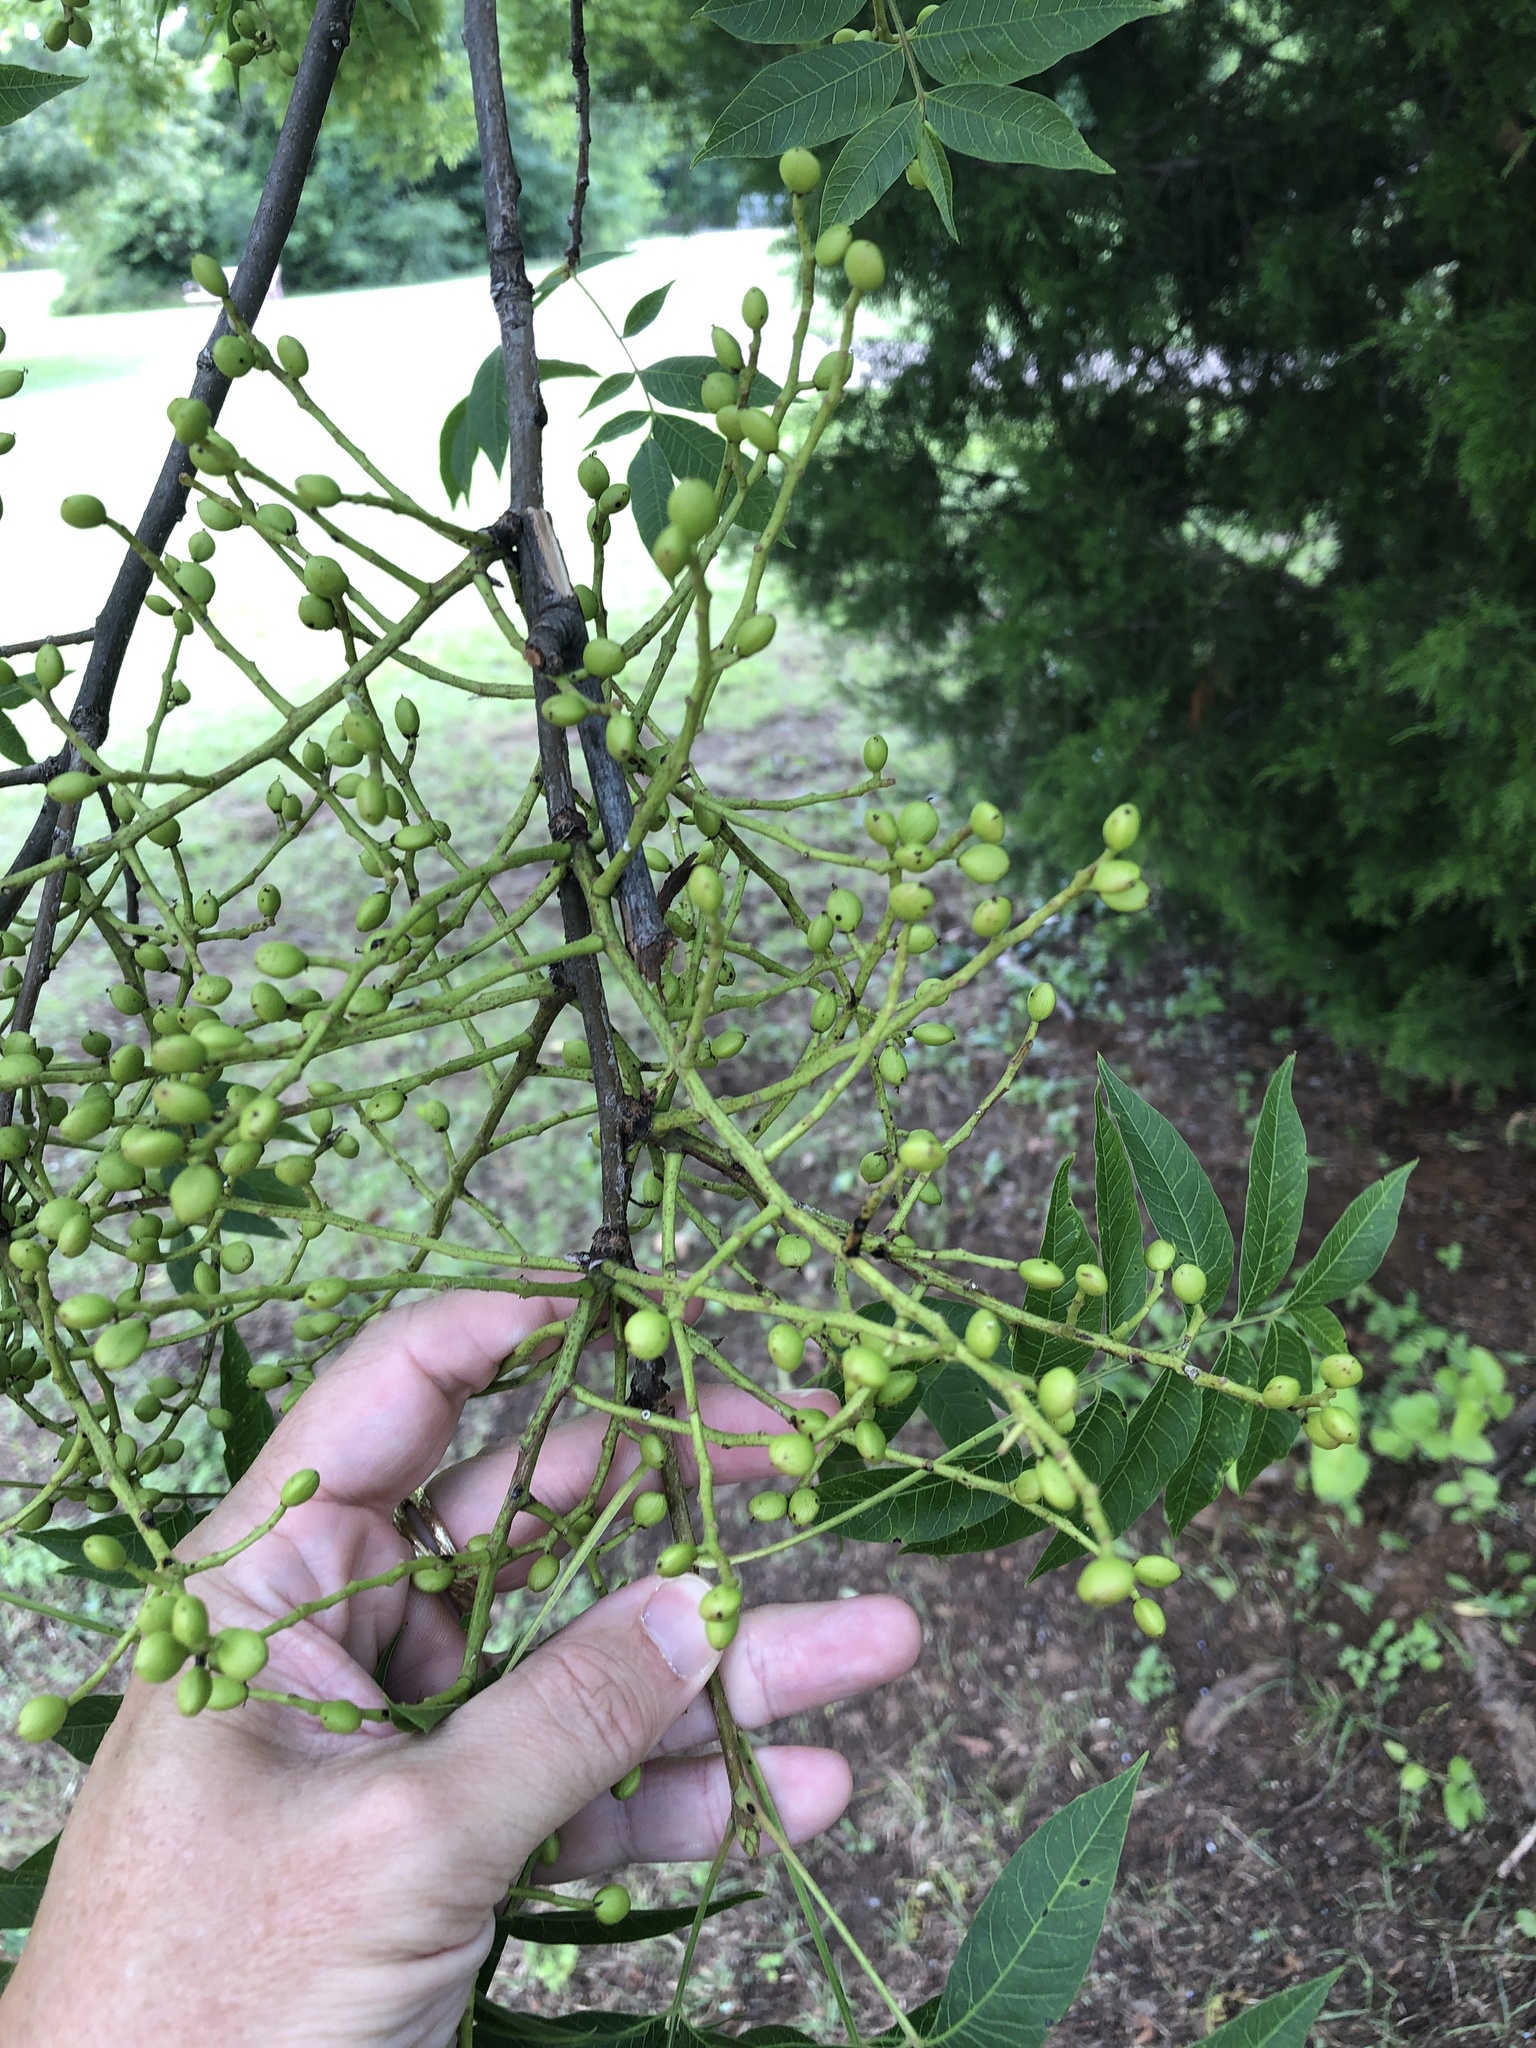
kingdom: Plantae
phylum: Tracheophyta
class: Magnoliopsida
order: Sapindales
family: Anacardiaceae
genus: Pistacia
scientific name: Pistacia chinensis
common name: Chinese pistache
